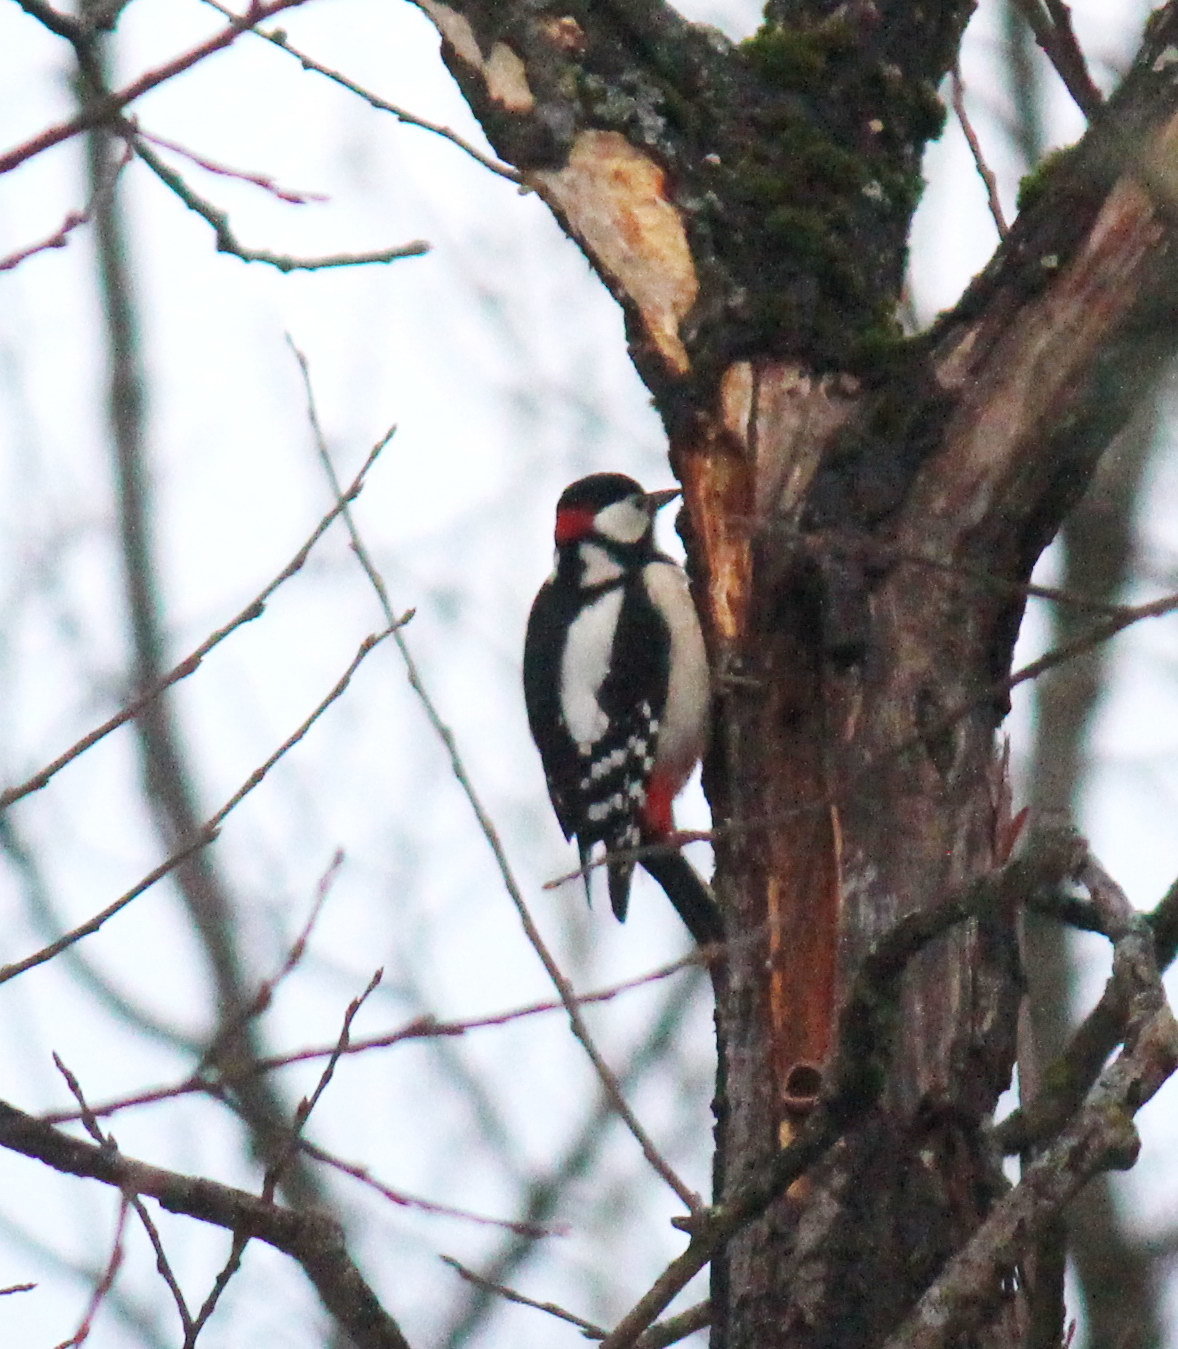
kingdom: Animalia
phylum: Chordata
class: Aves
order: Piciformes
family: Picidae
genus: Dendrocopos
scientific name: Dendrocopos major
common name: Great spotted woodpecker
